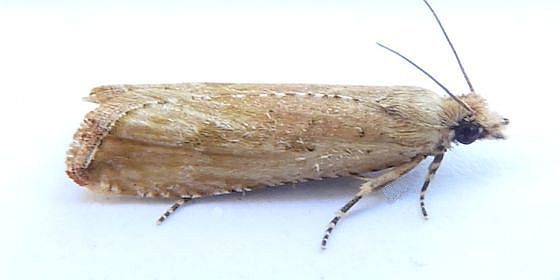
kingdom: Animalia
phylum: Arthropoda
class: Insecta
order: Lepidoptera
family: Tortricidae
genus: Bactra
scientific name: Bactra verutana
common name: Javelin moth
